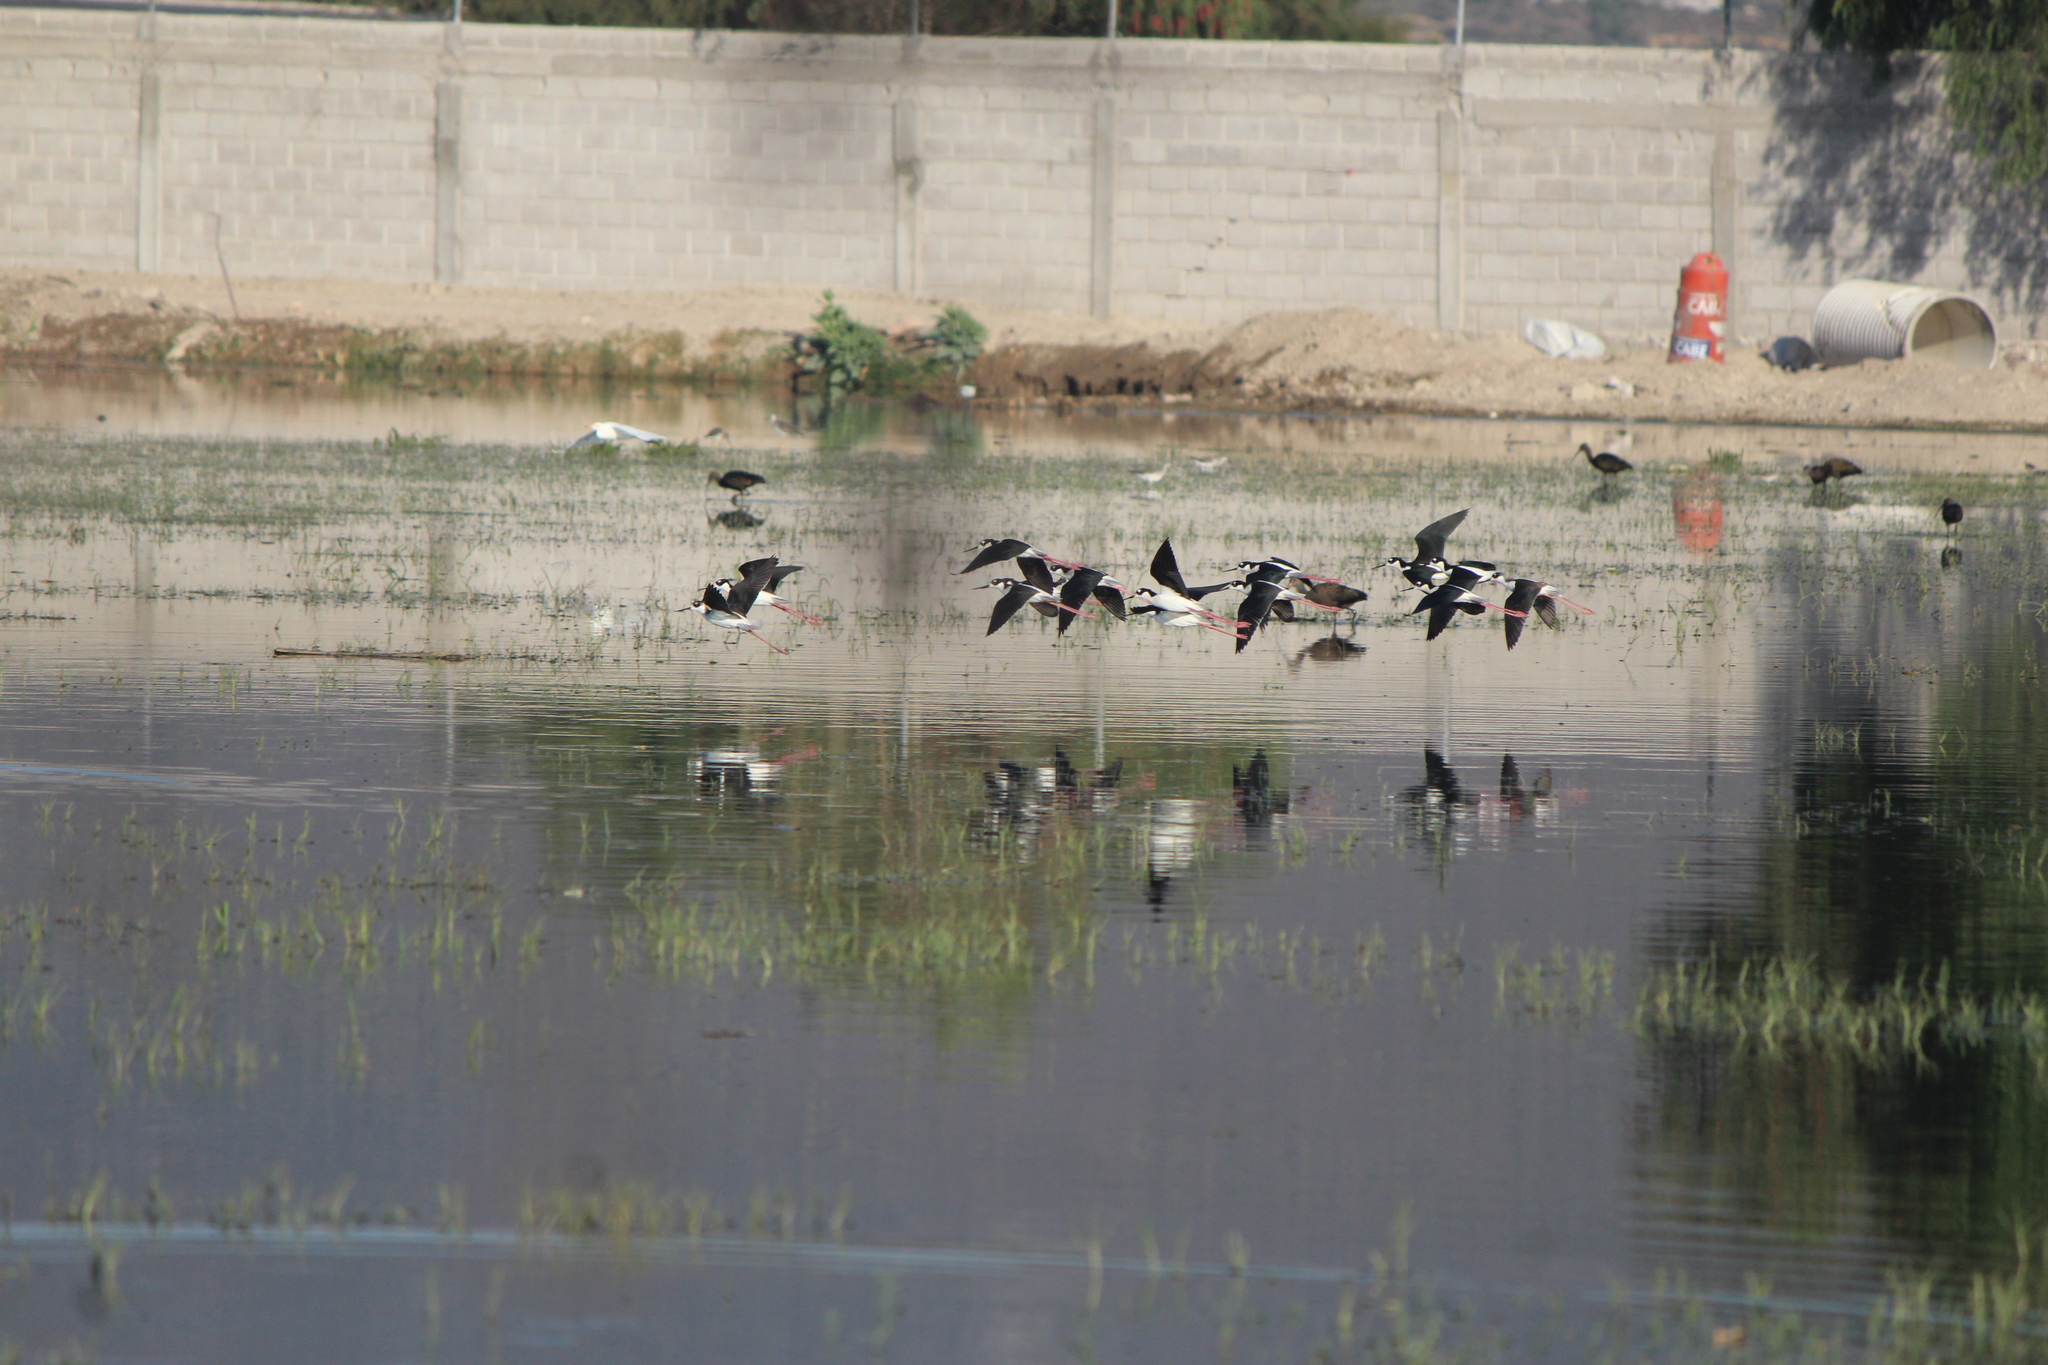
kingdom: Animalia
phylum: Chordata
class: Aves
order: Charadriiformes
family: Recurvirostridae
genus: Himantopus
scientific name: Himantopus mexicanus
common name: Black-necked stilt
